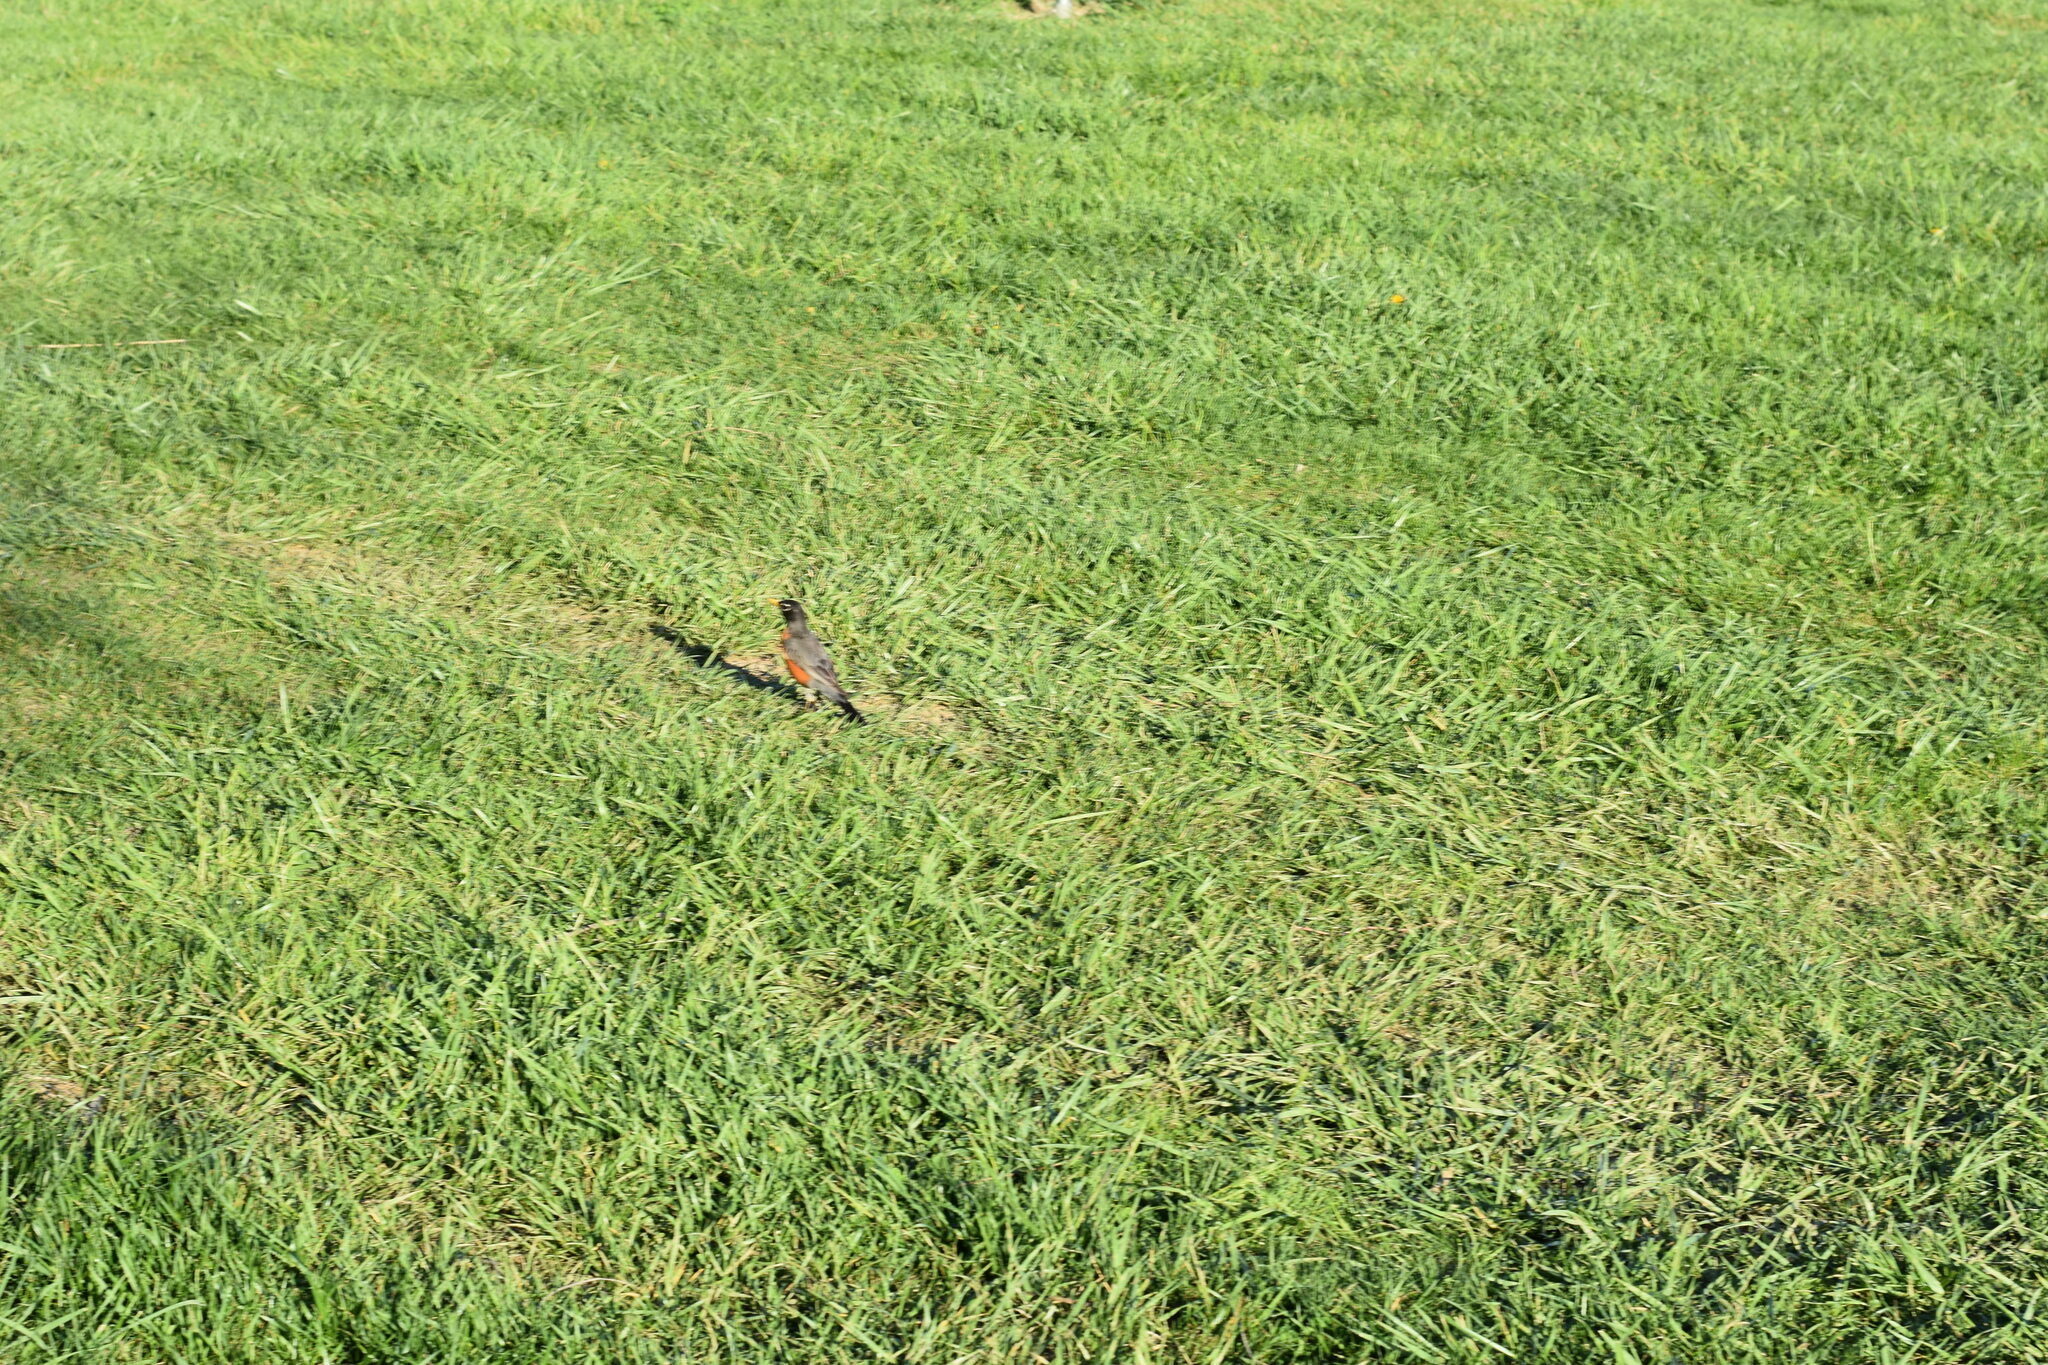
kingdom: Animalia
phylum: Chordata
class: Aves
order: Passeriformes
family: Turdidae
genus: Turdus
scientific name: Turdus migratorius
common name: American robin
